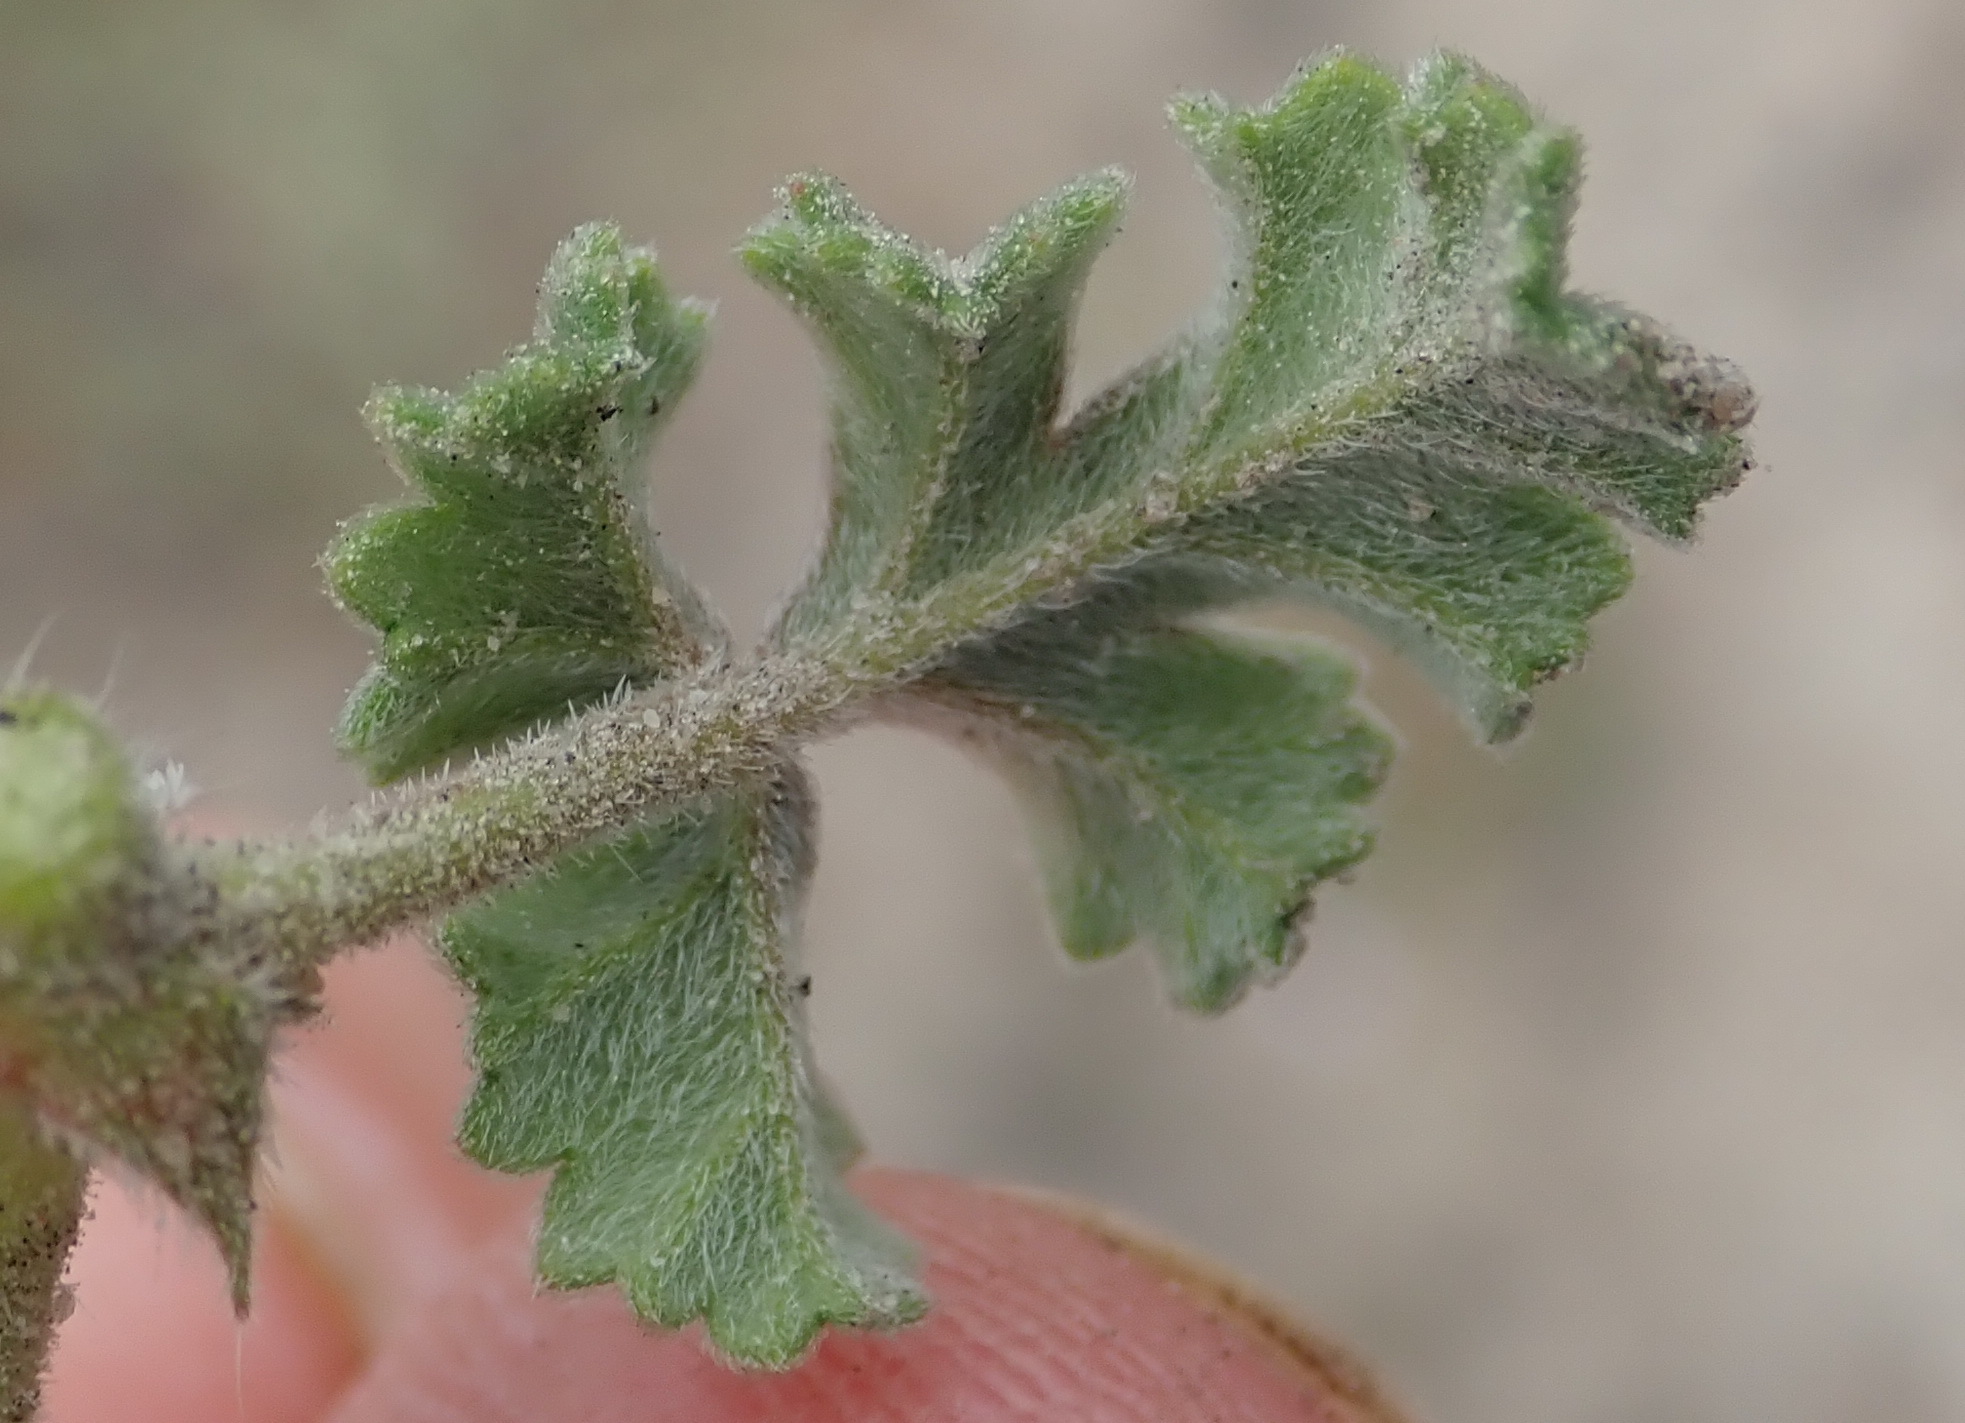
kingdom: Plantae
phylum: Tracheophyta
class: Magnoliopsida
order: Geraniales
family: Geraniaceae
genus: Pelargonium
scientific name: Pelargonium candicans
